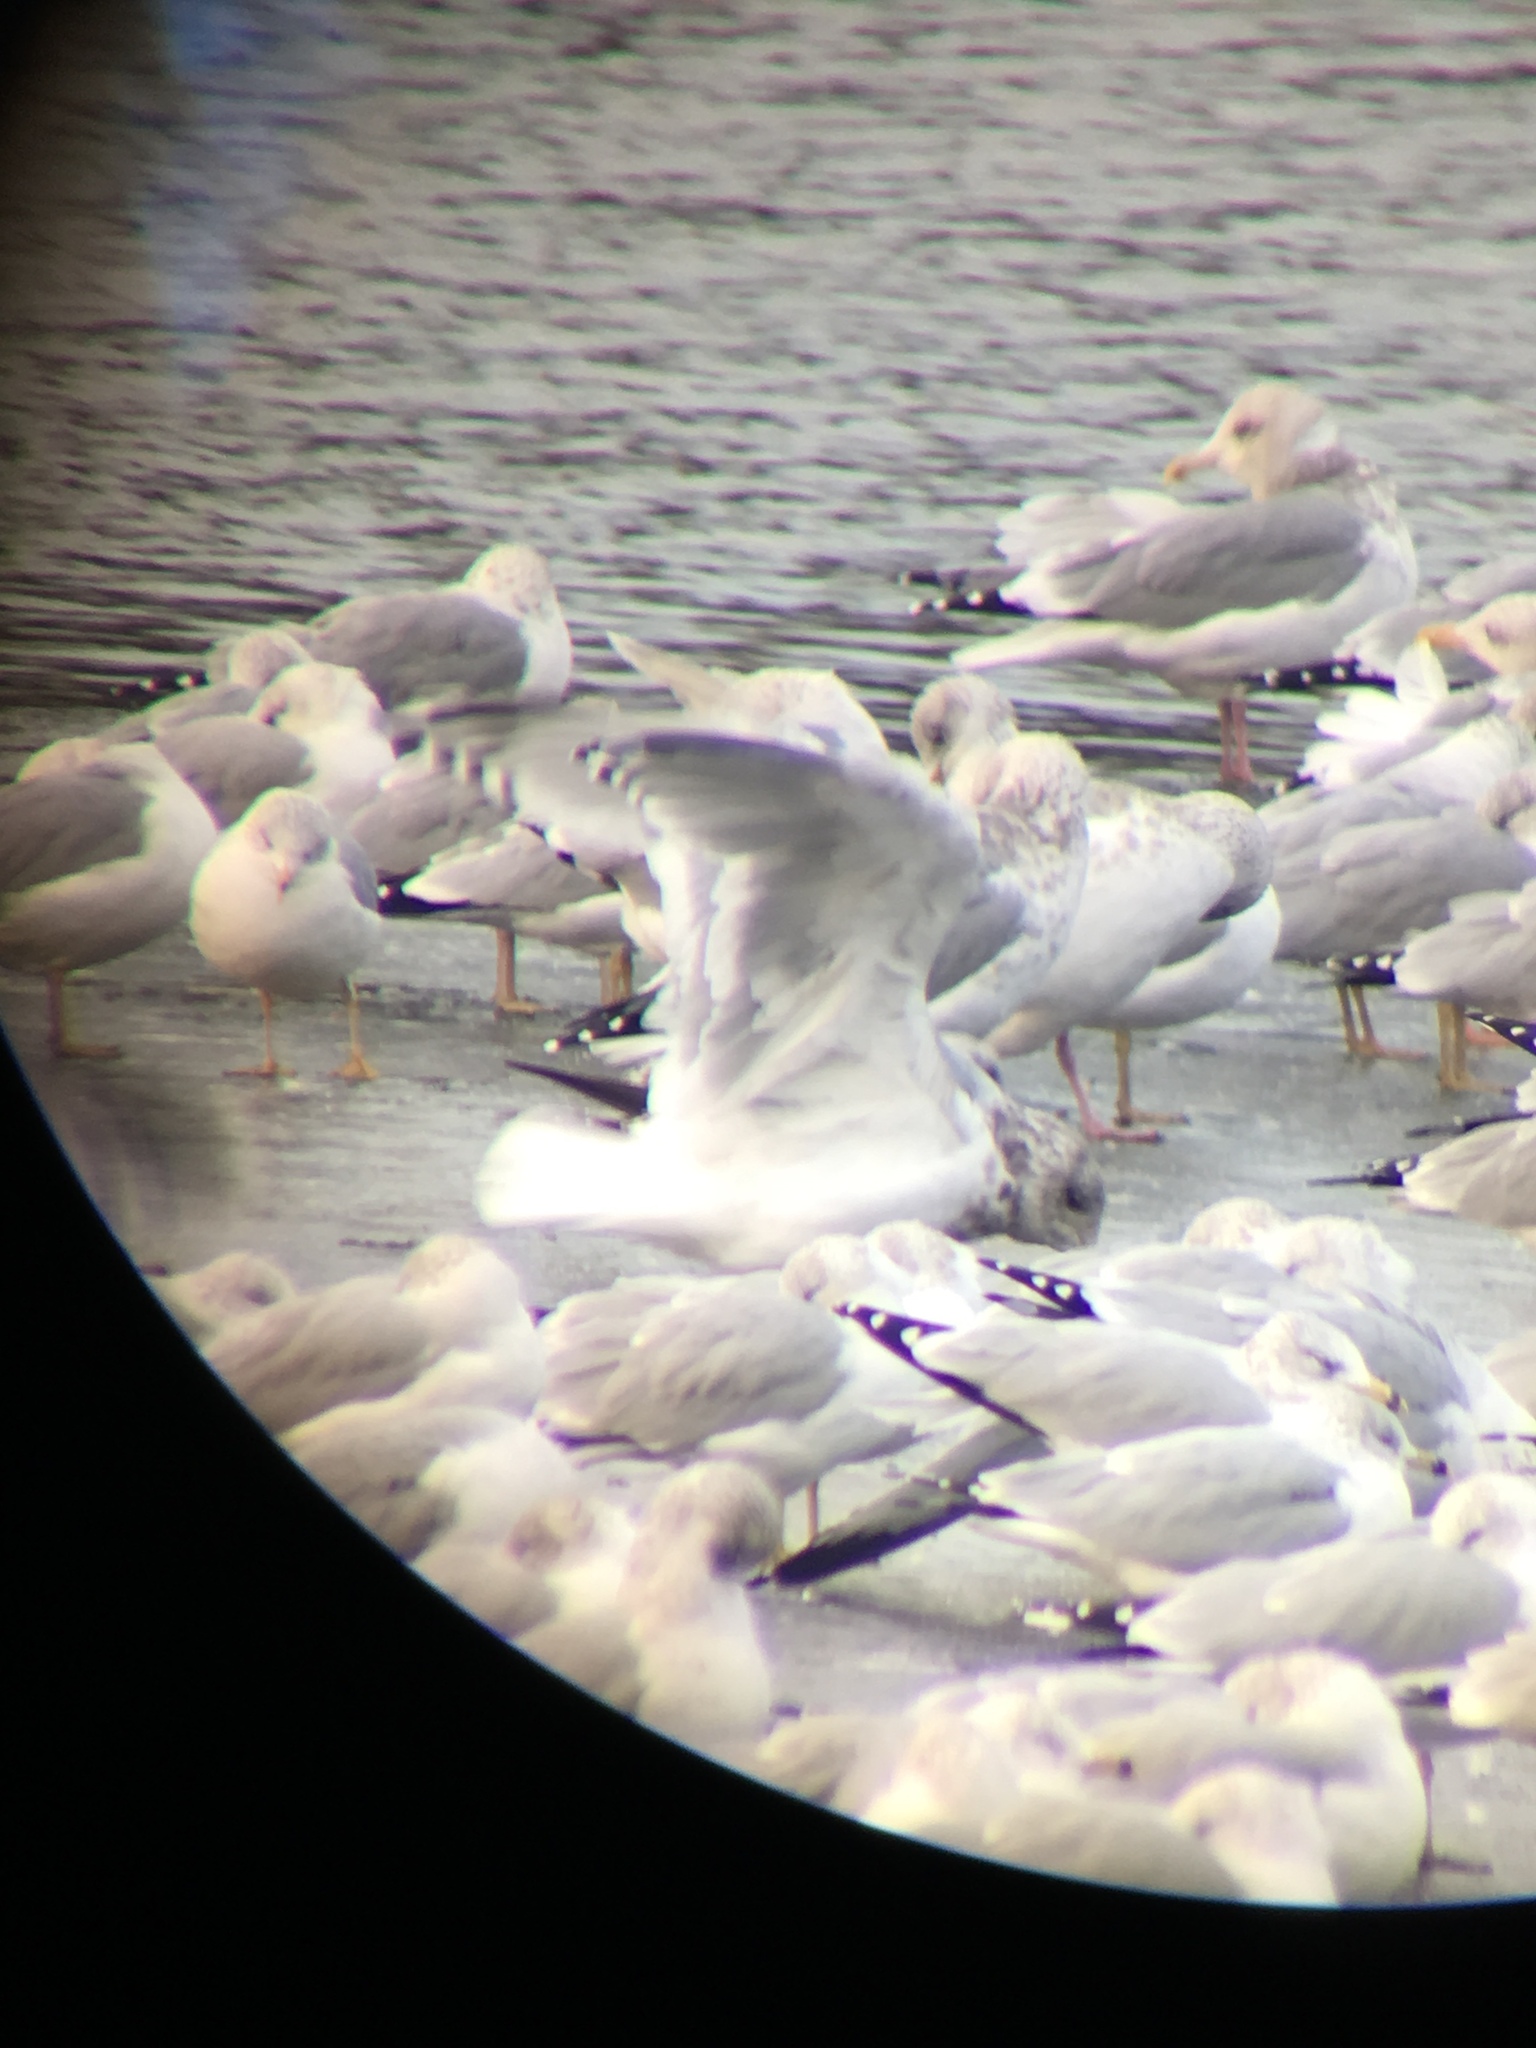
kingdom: Animalia
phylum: Chordata
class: Aves
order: Charadriiformes
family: Laridae
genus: Larus
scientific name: Larus glaucoides
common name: Iceland gull
